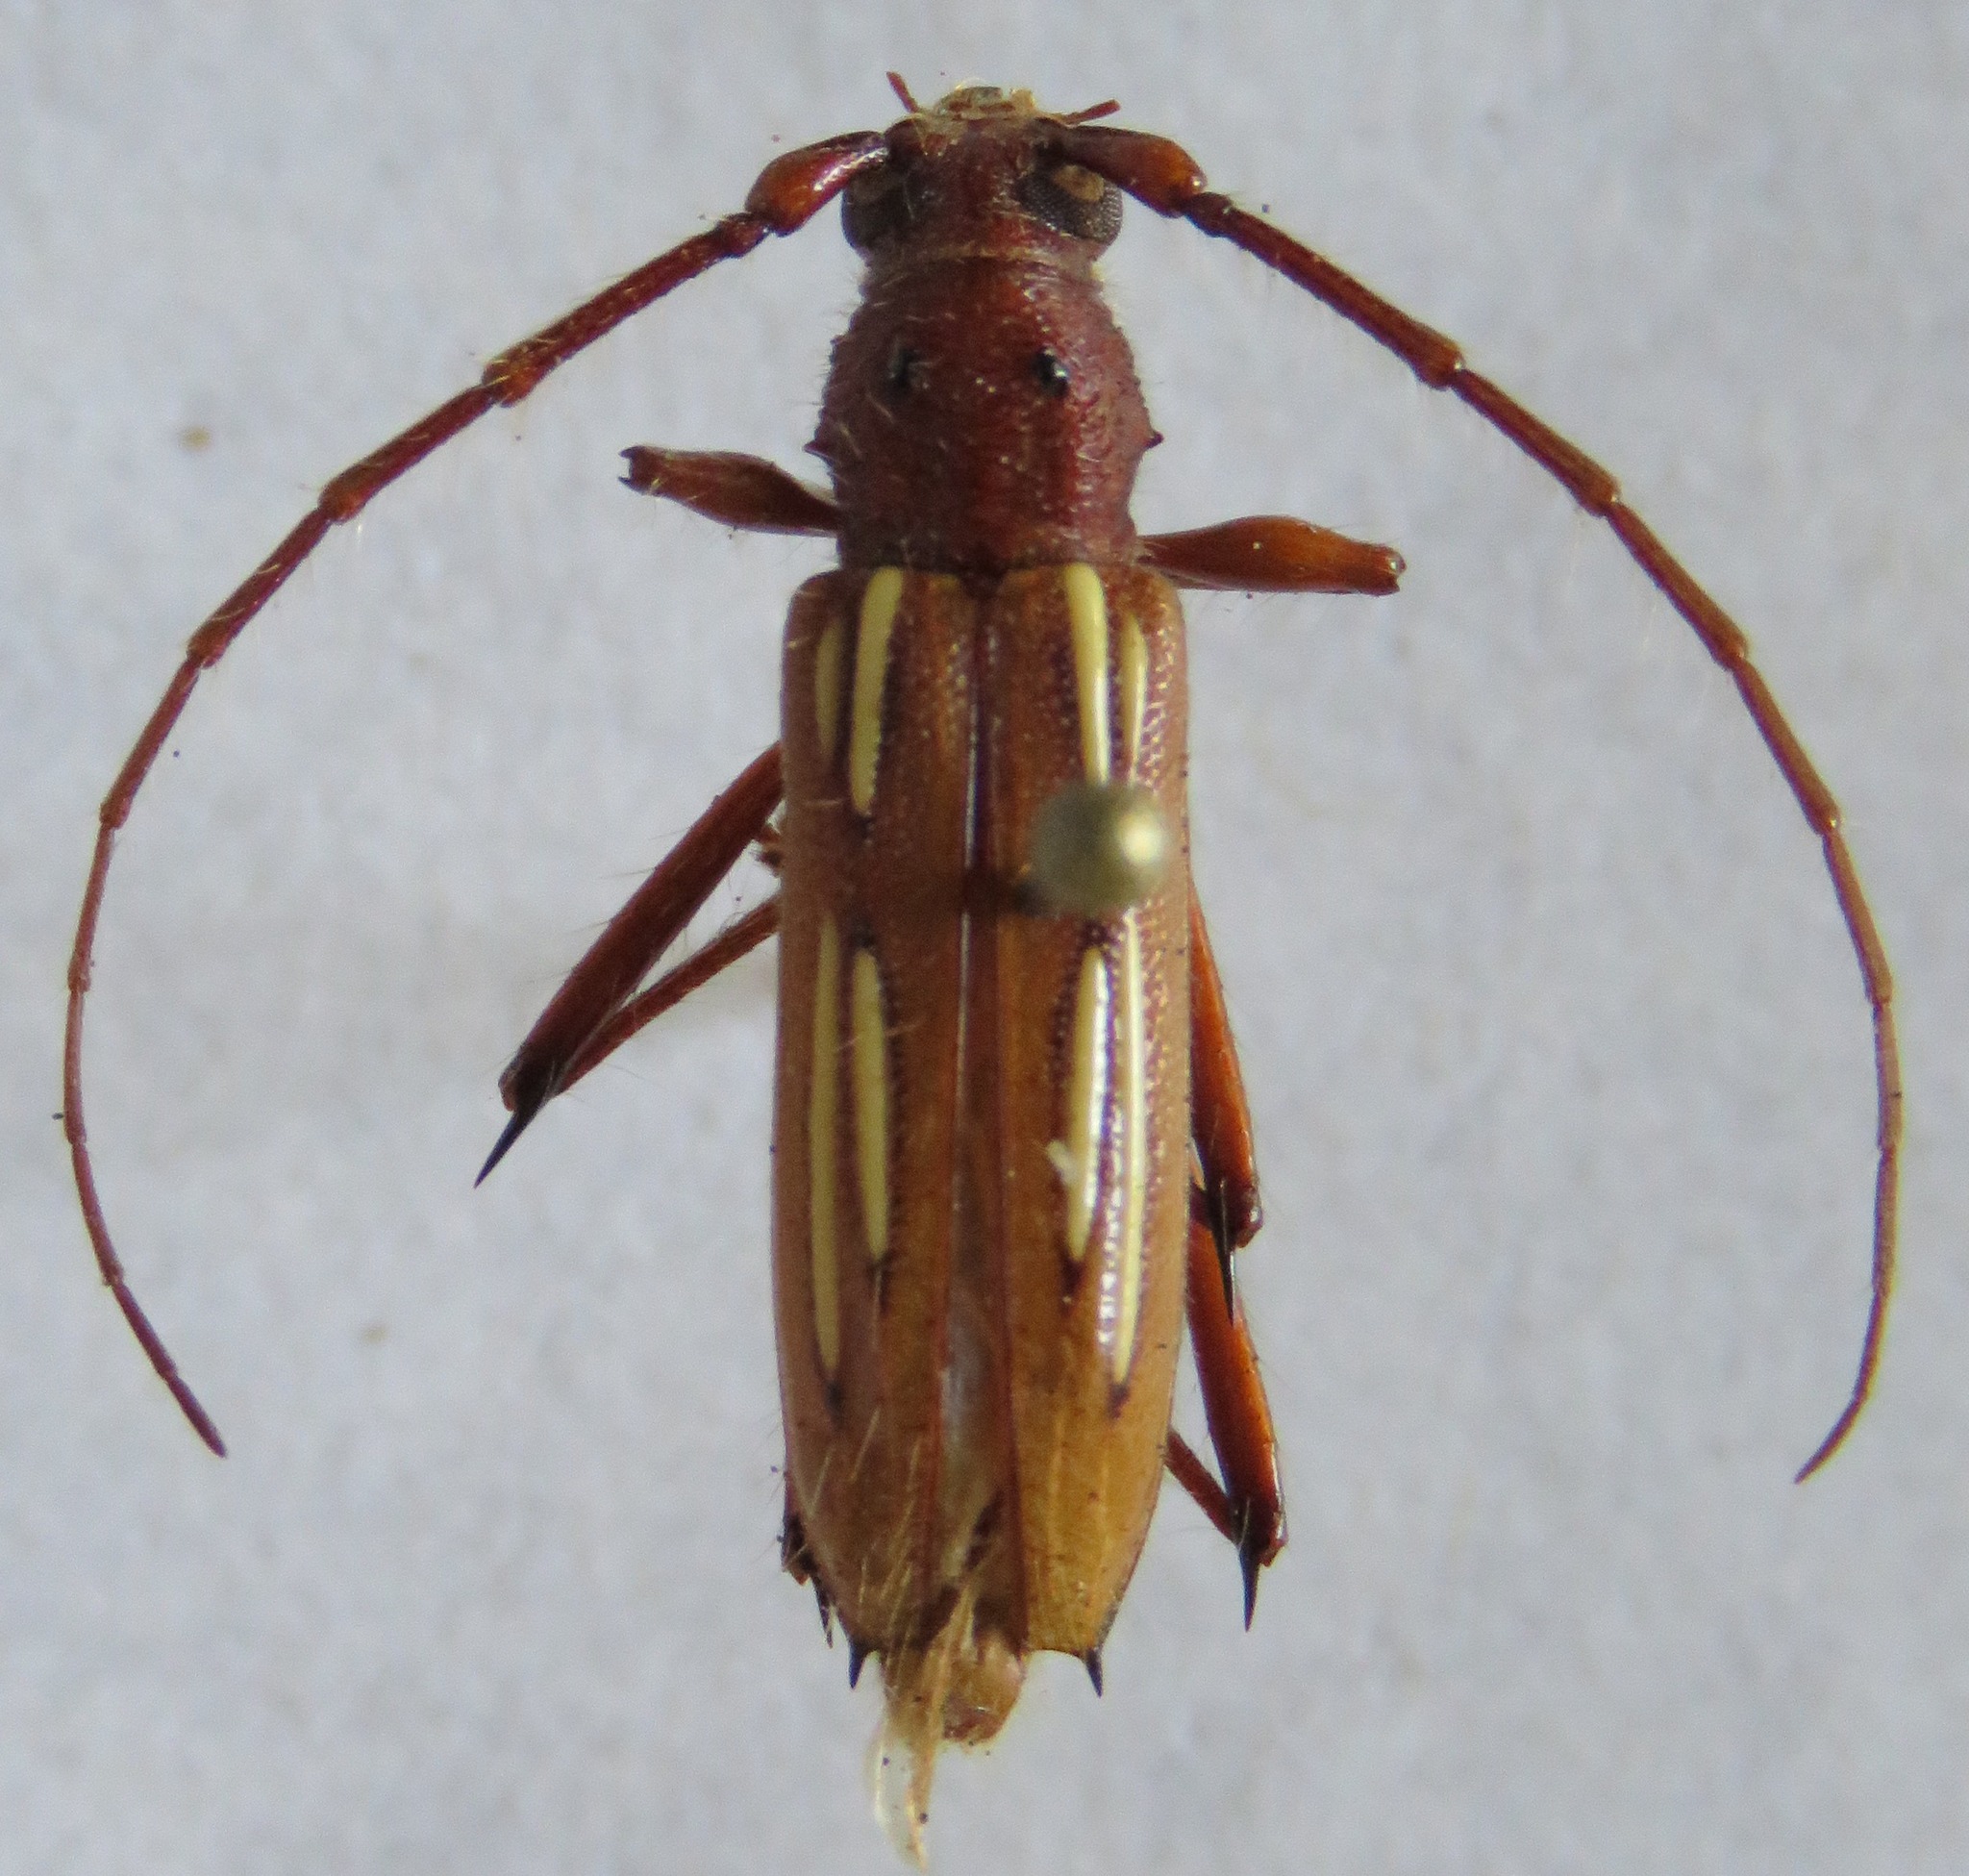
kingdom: Animalia
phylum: Arthropoda
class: Insecta
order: Coleoptera
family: Cerambycidae
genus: Eburodacrys
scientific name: Eburodacrys havanensis
